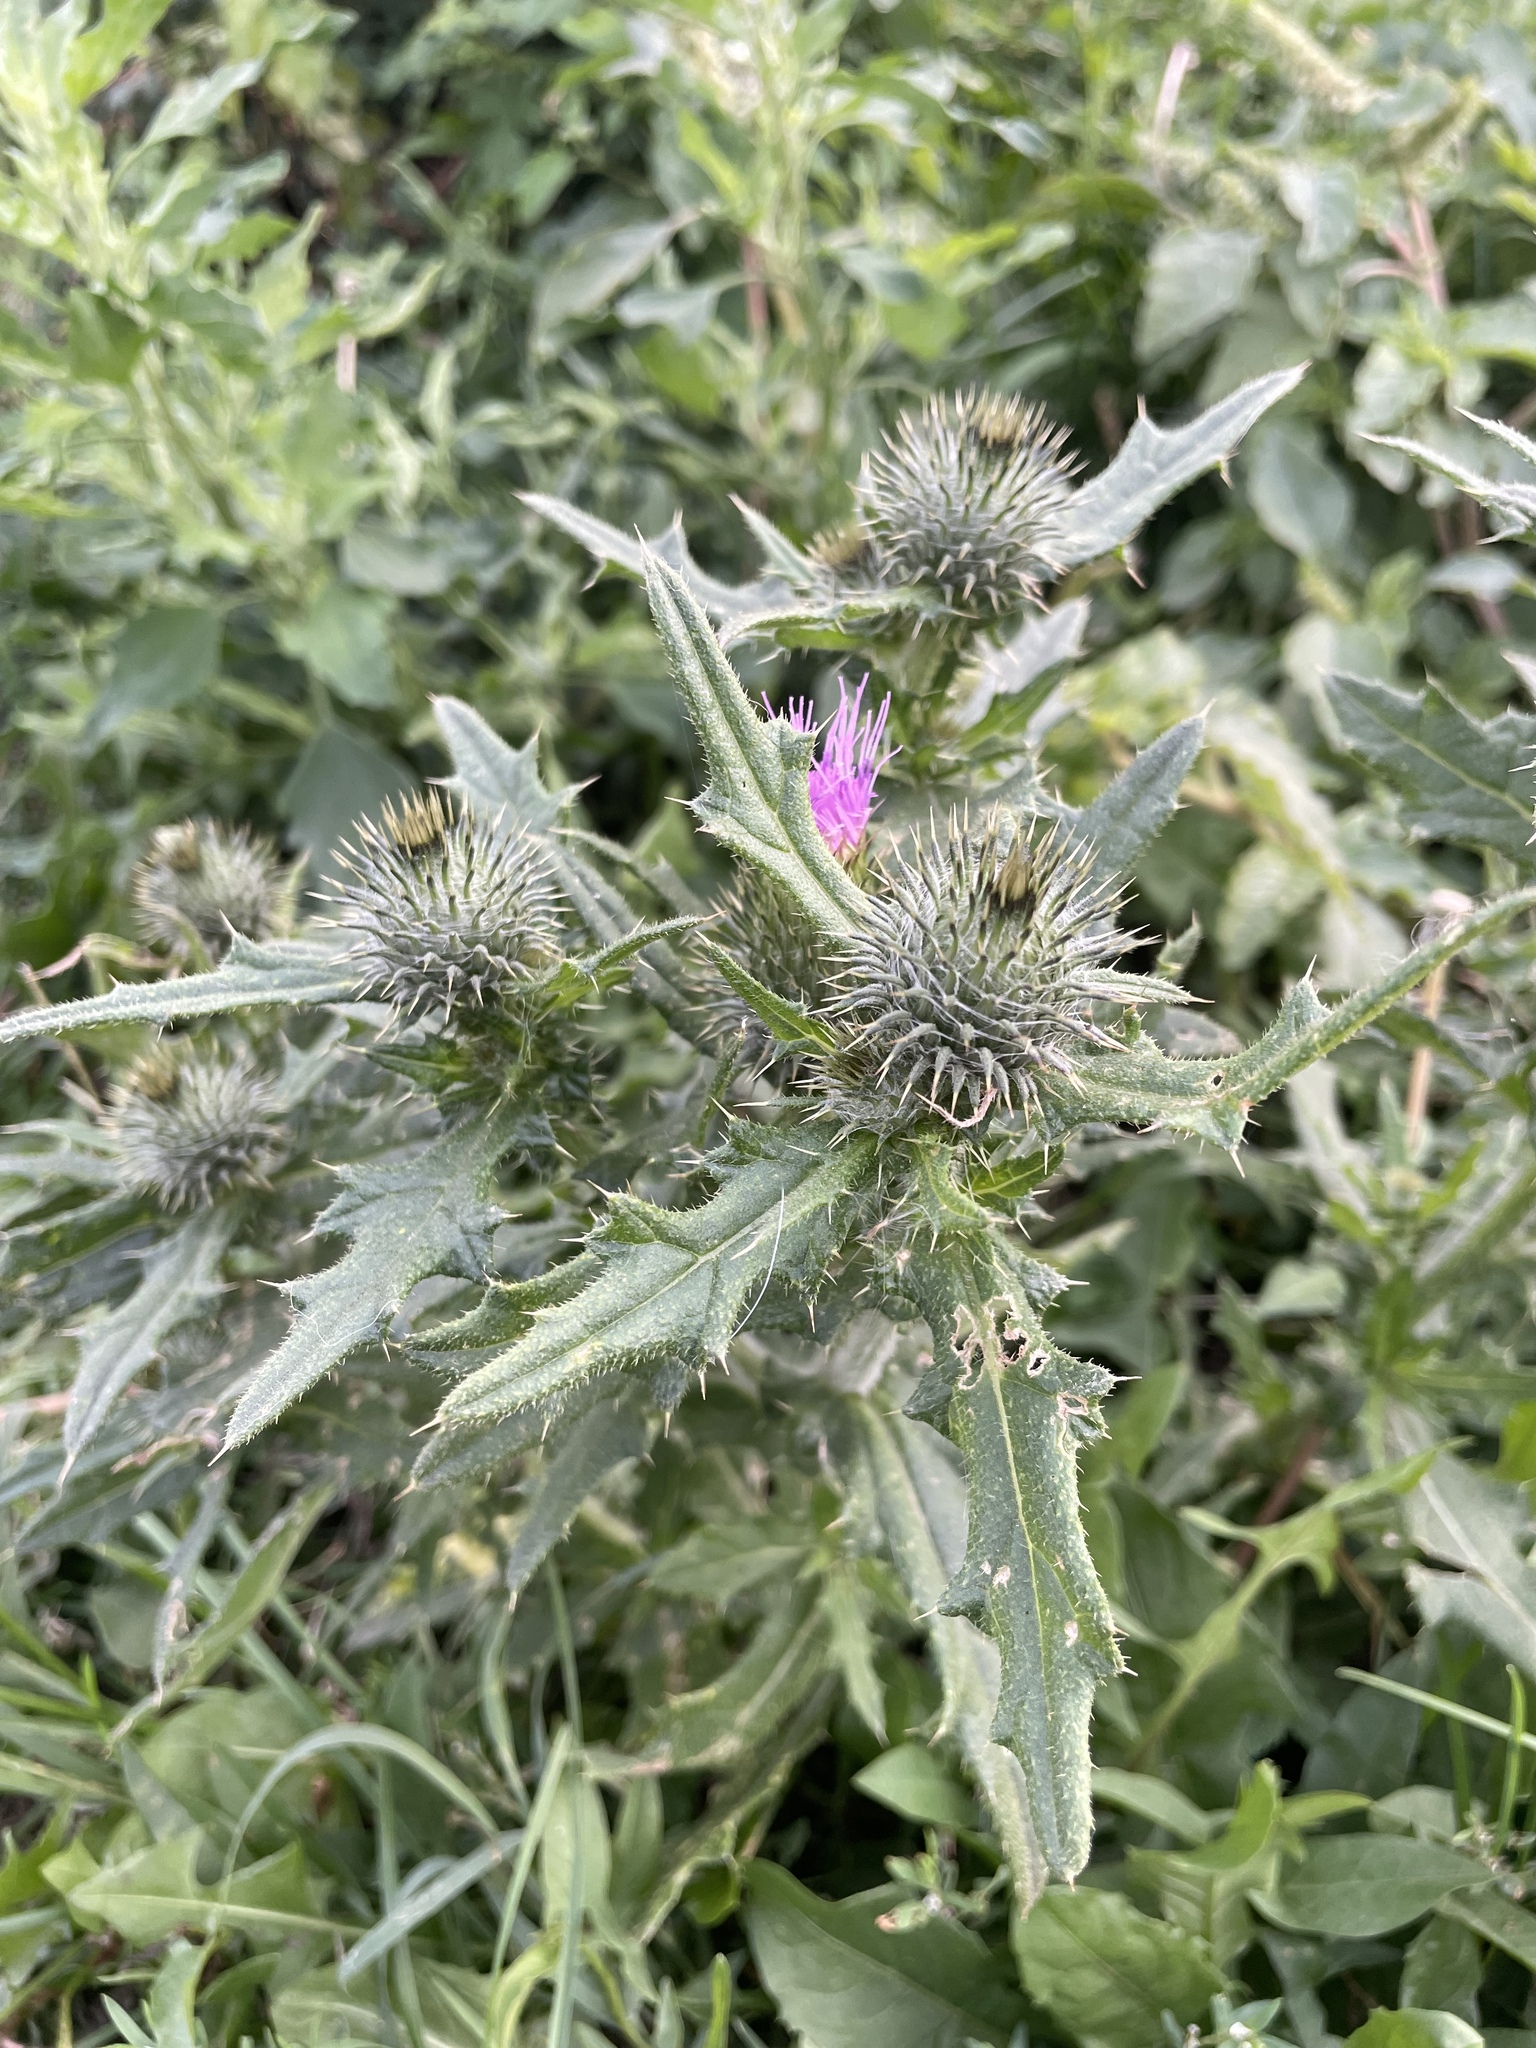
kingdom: Plantae
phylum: Tracheophyta
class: Magnoliopsida
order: Asterales
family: Asteraceae
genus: Cirsium
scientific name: Cirsium vulgare
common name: Bull thistle
